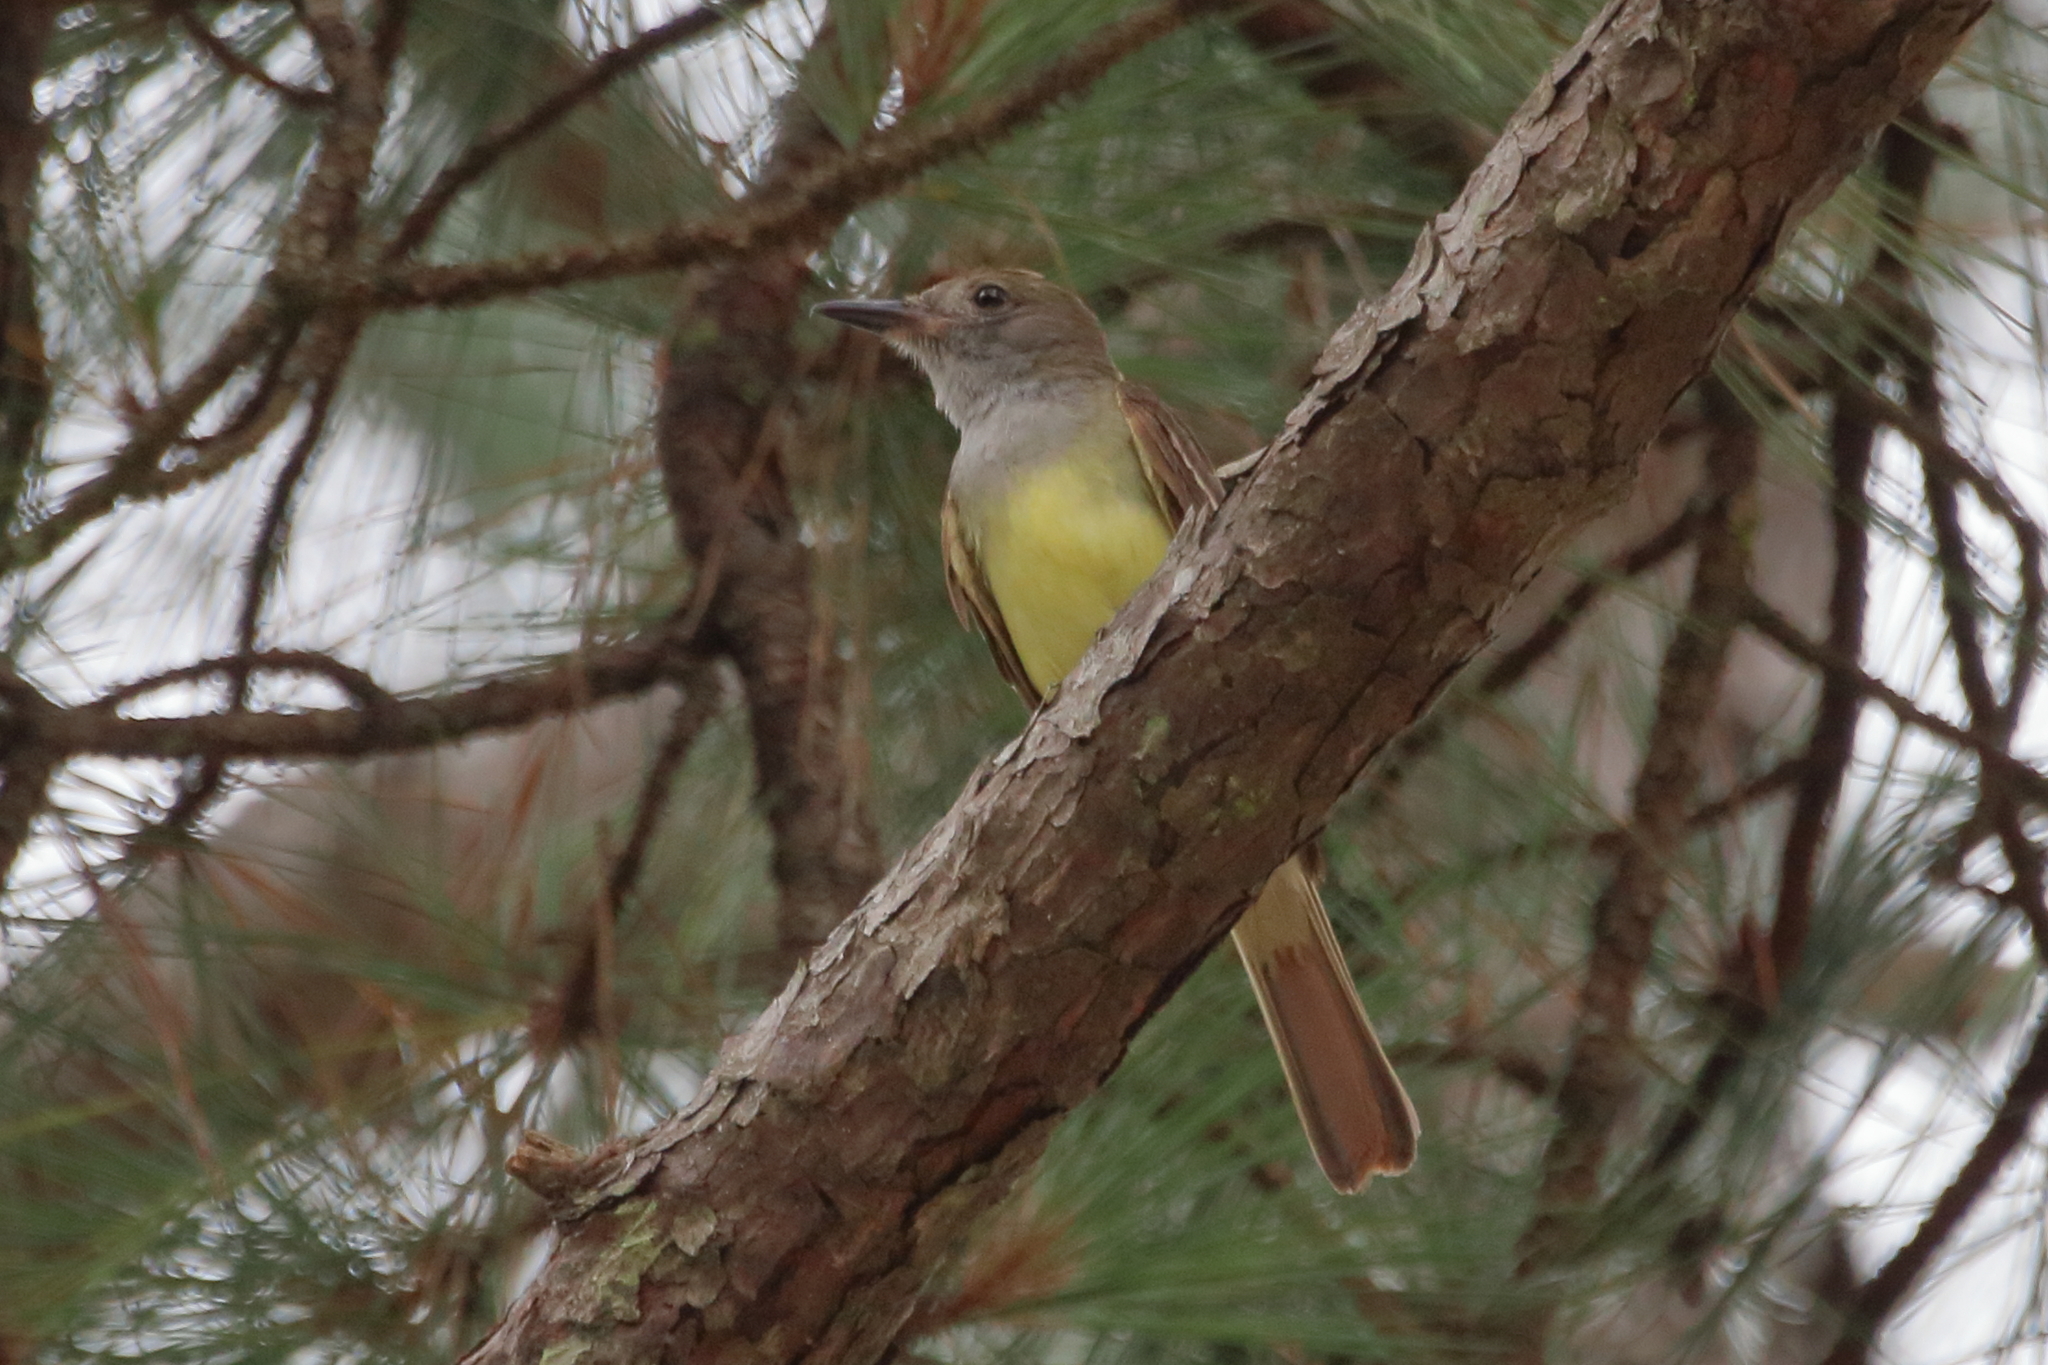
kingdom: Animalia
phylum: Chordata
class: Aves
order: Passeriformes
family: Tyrannidae
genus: Myiarchus
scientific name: Myiarchus crinitus
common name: Great crested flycatcher
